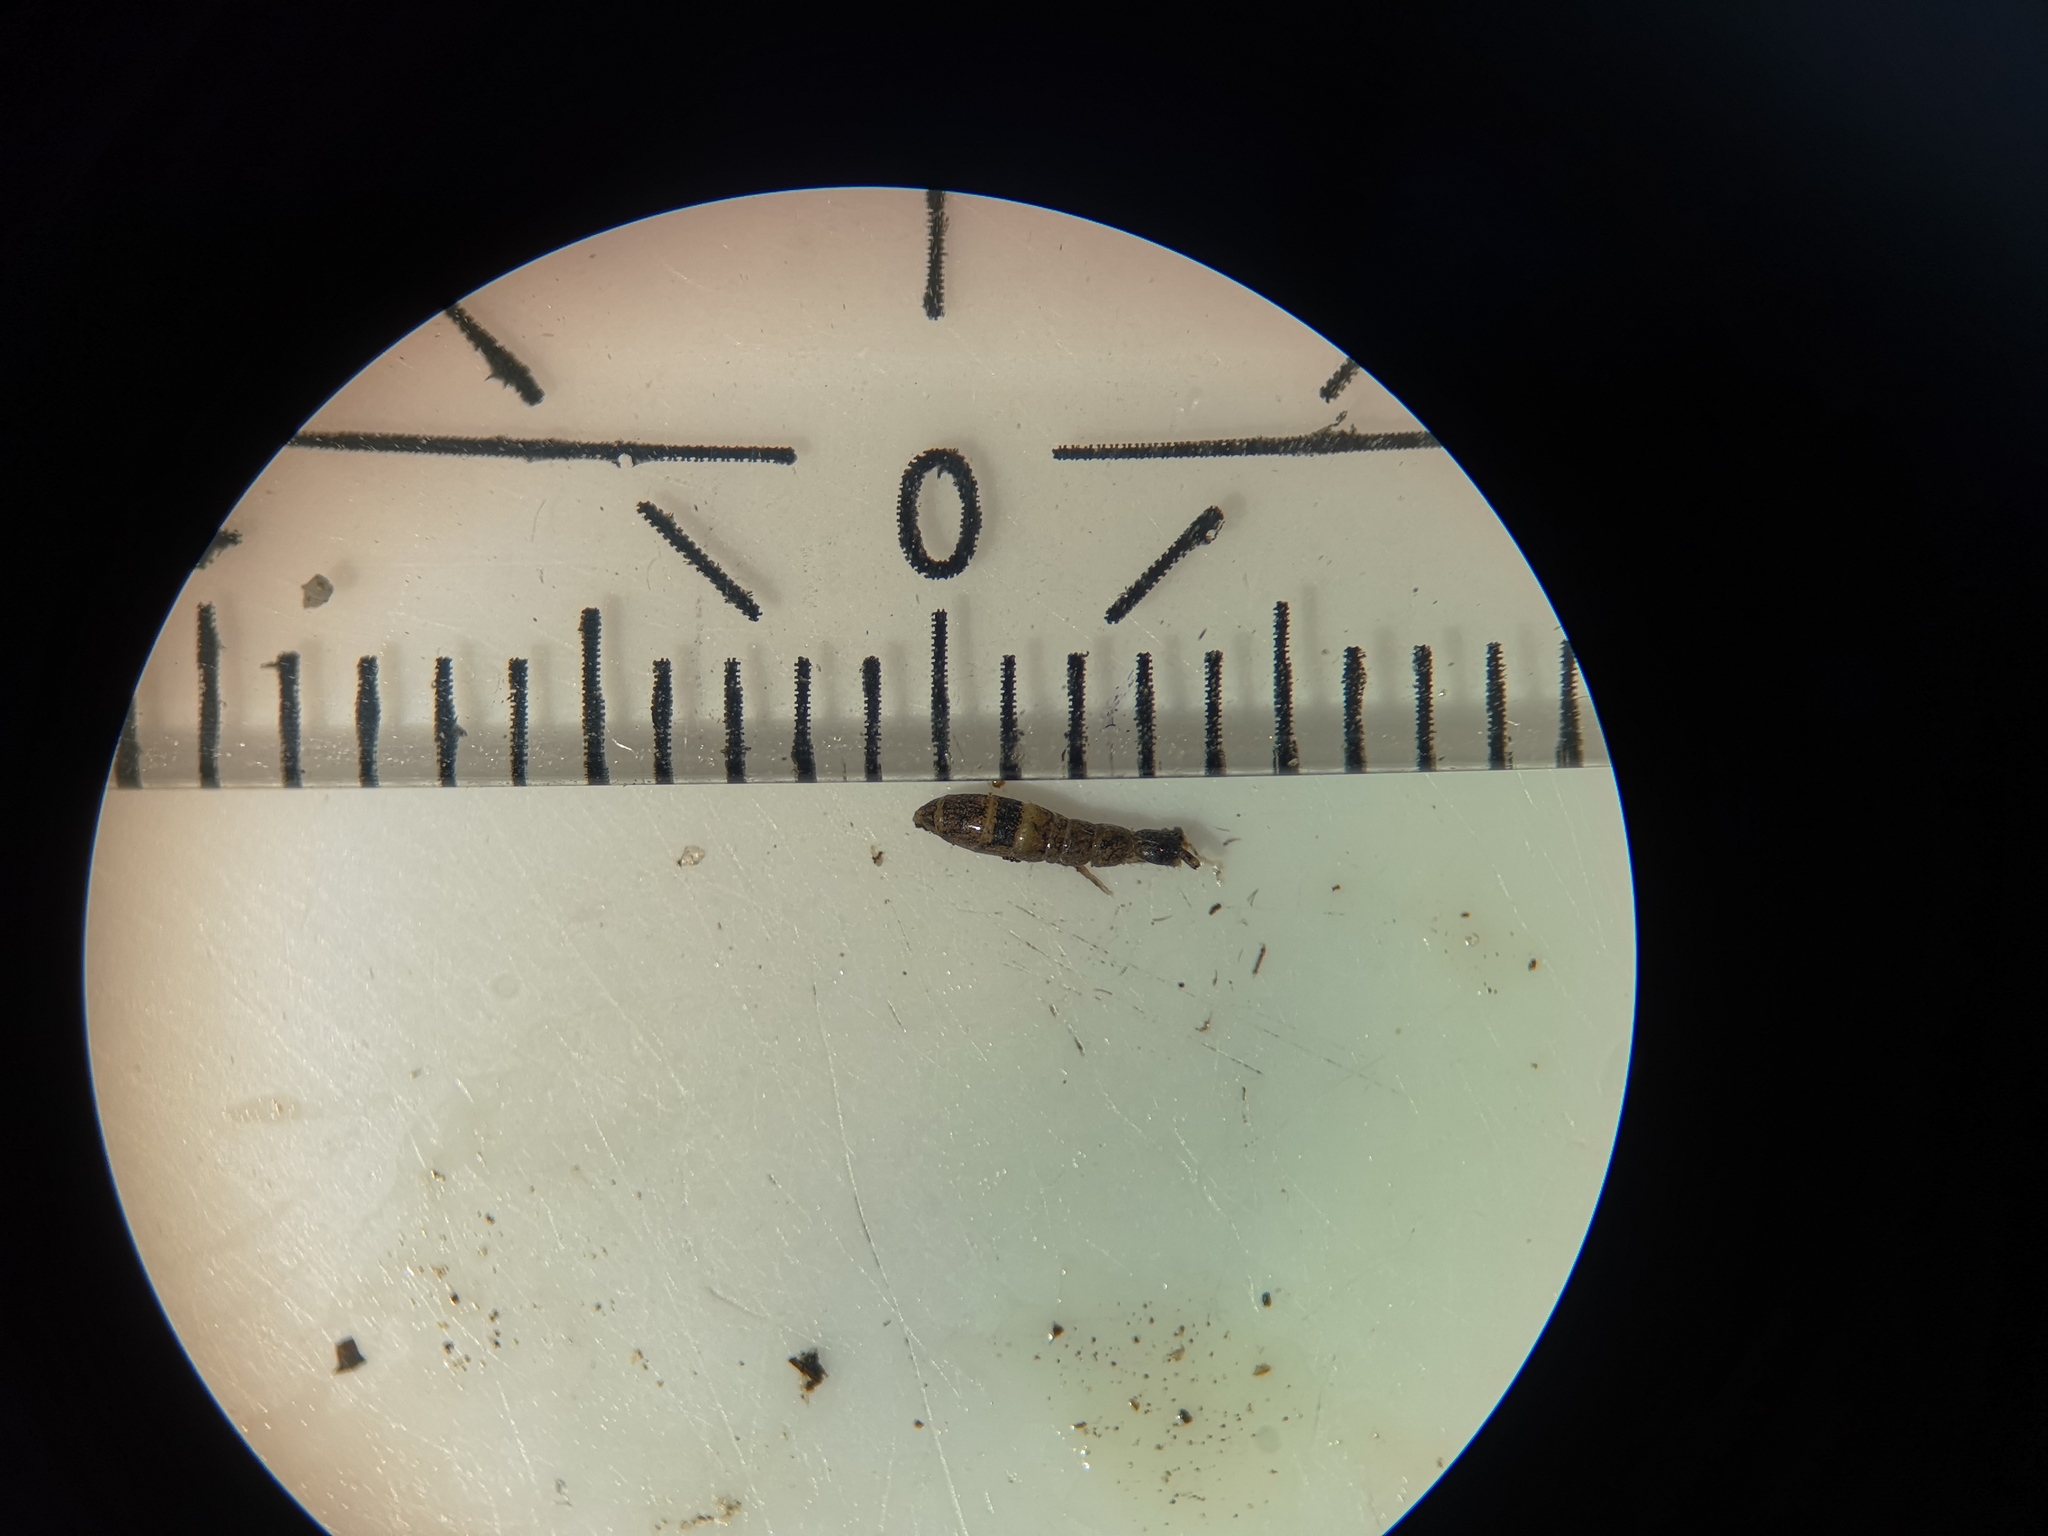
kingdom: Animalia
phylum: Arthropoda
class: Collembola
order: Entomobryomorpha
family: Orchesellidae
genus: Orchesella
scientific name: Orchesella cincta
